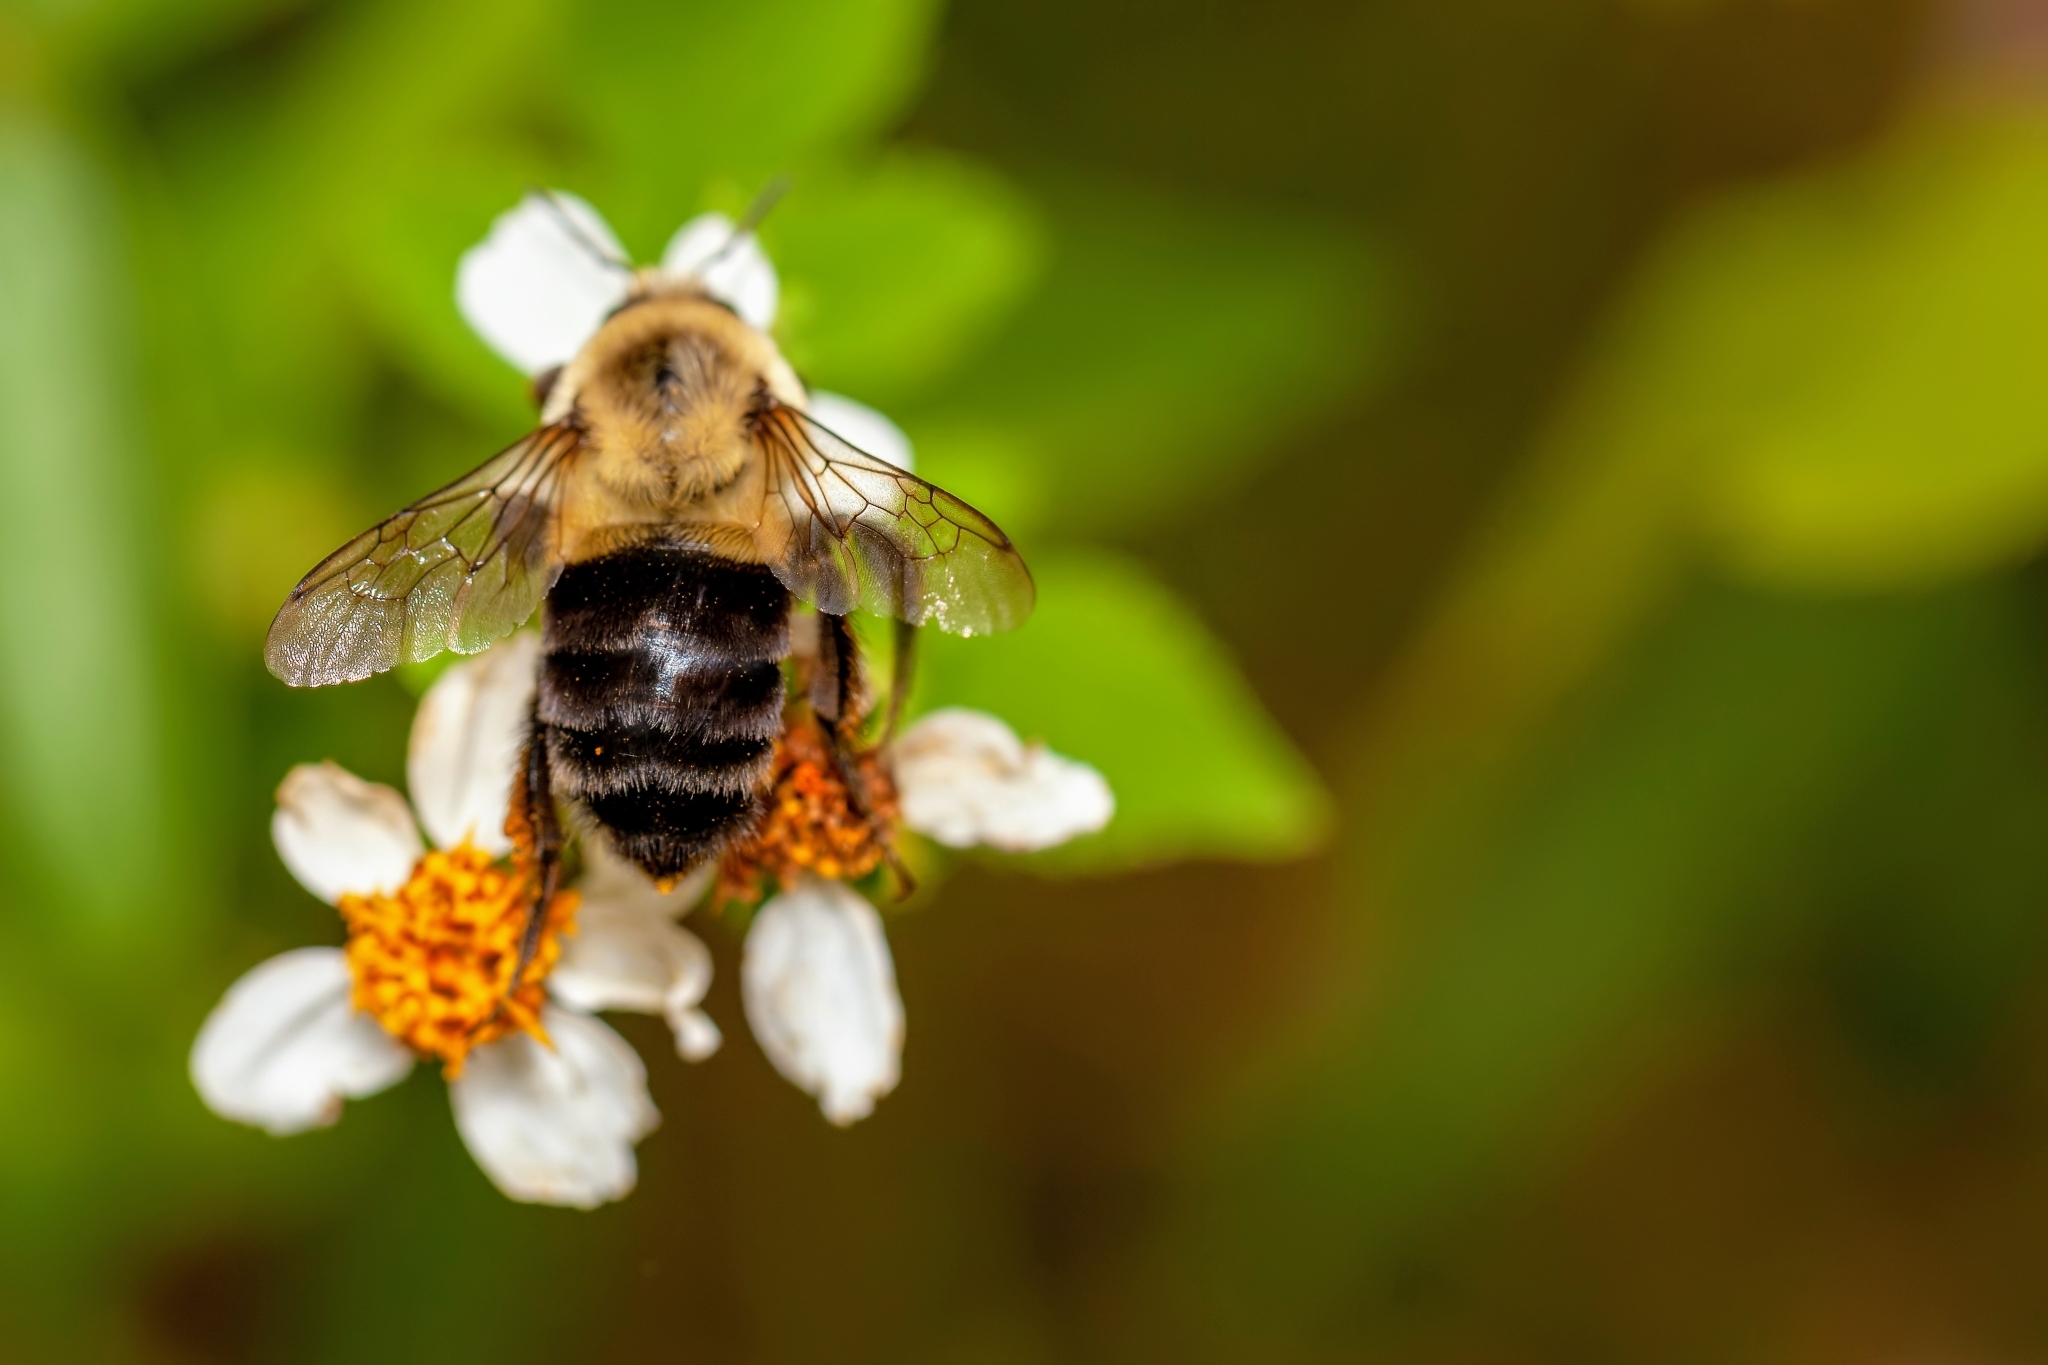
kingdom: Animalia
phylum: Arthropoda
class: Insecta
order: Hymenoptera
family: Apidae
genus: Bombus
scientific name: Bombus impatiens
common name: Common eastern bumble bee
